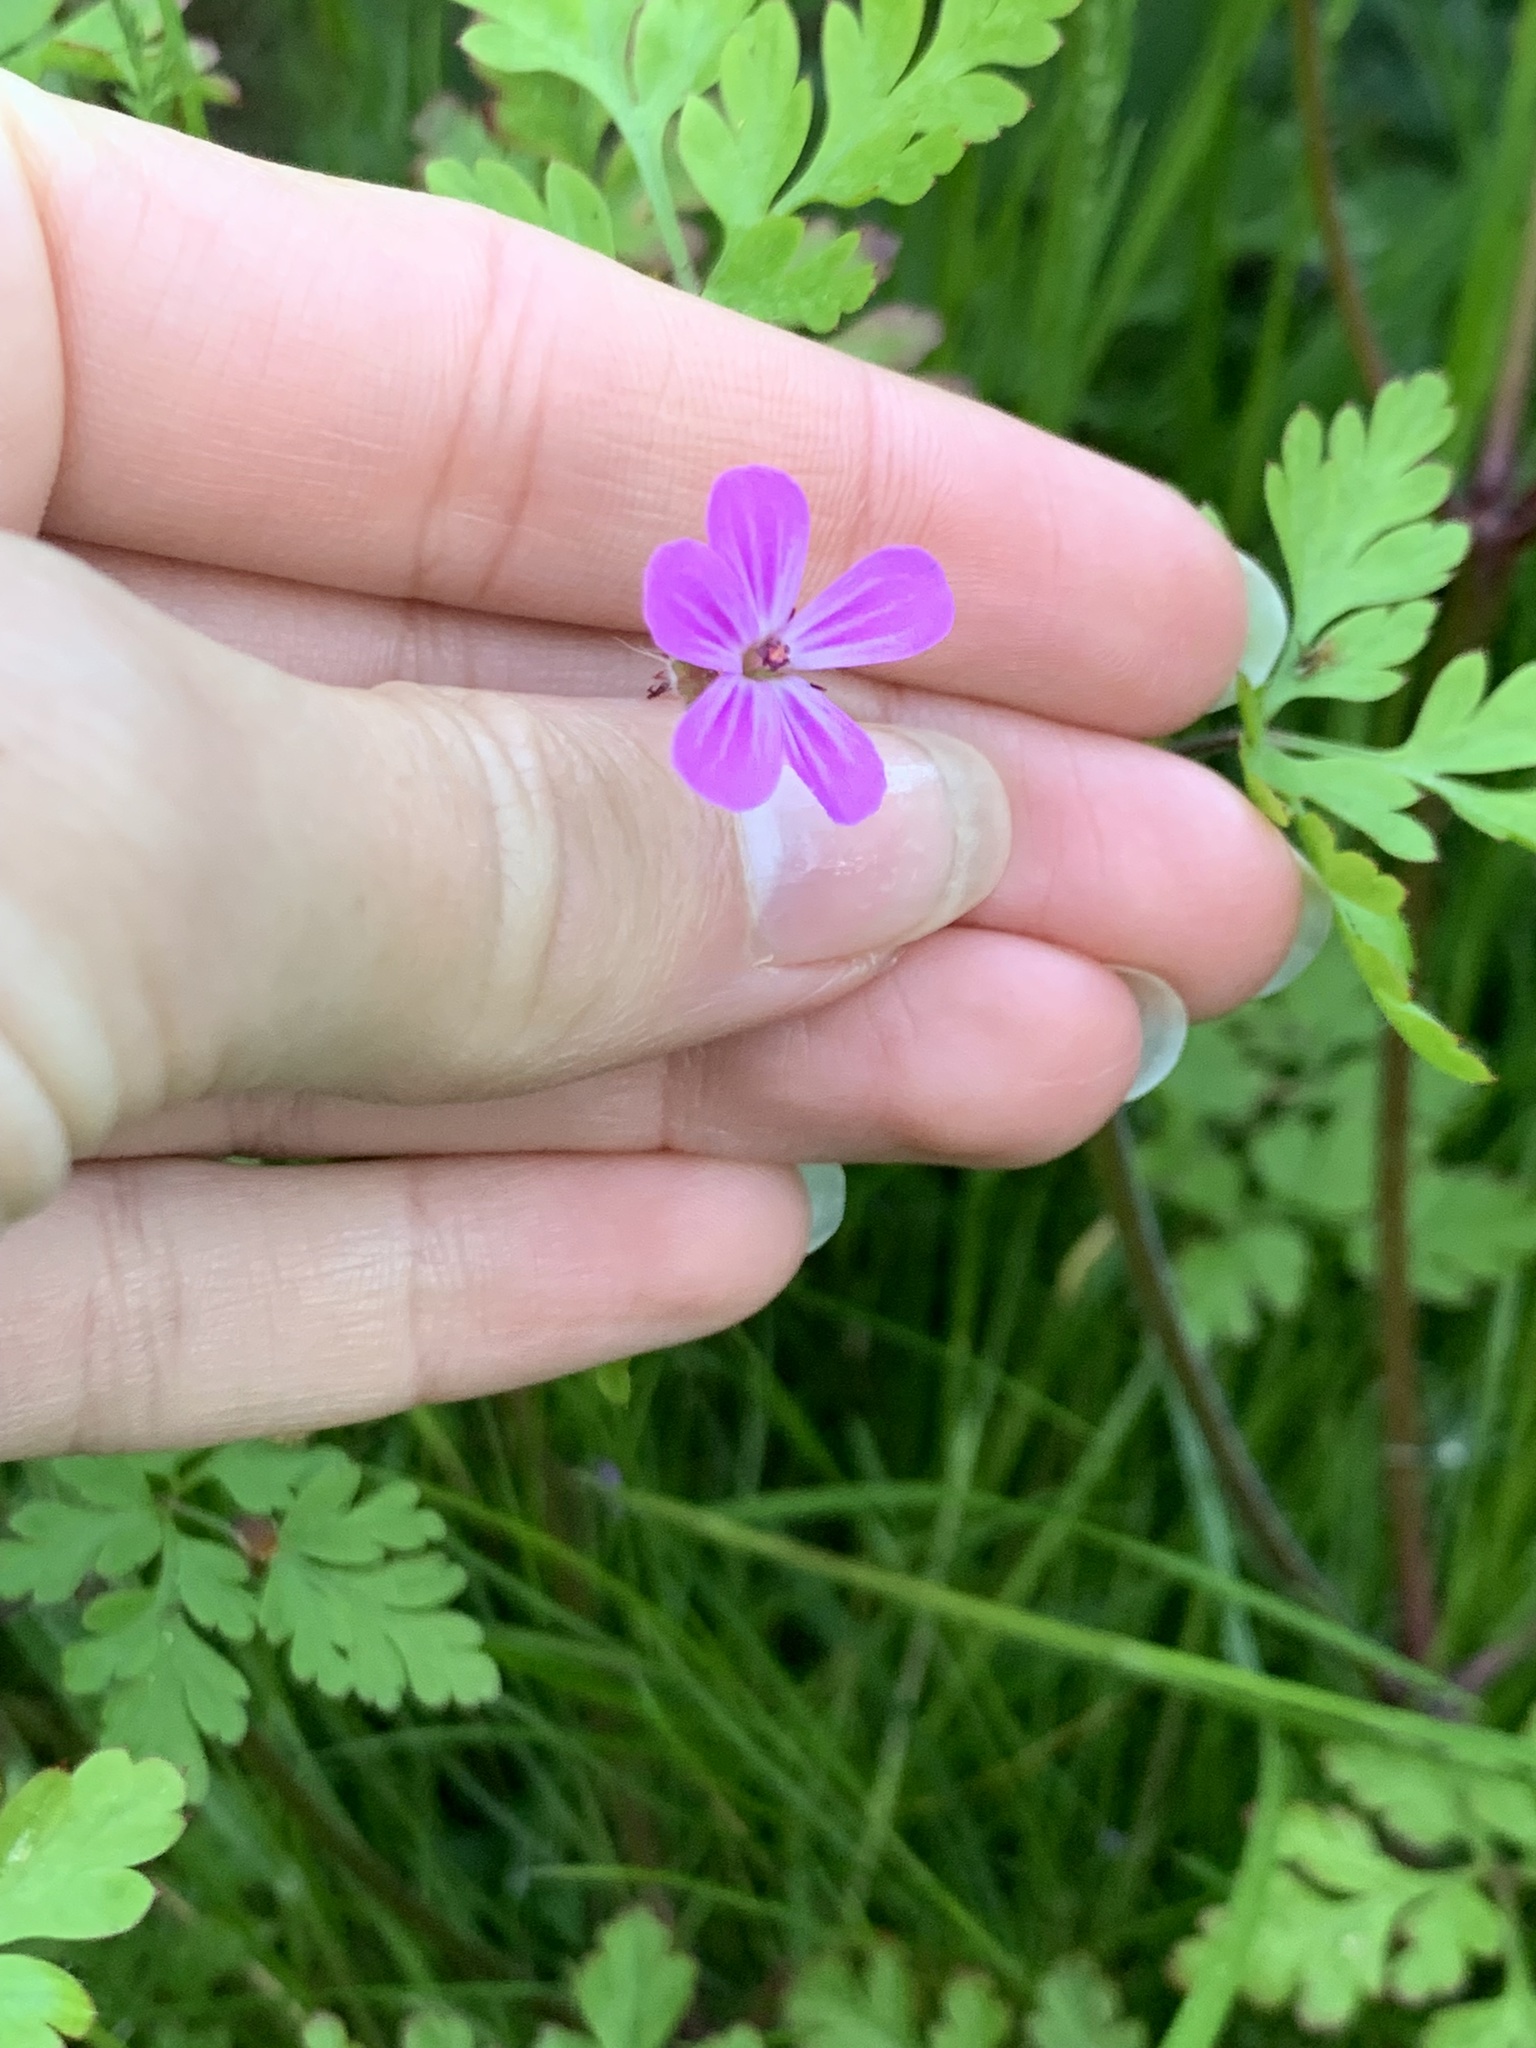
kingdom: Plantae
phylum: Tracheophyta
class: Magnoliopsida
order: Geraniales
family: Geraniaceae
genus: Geranium
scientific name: Geranium robertianum
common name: Herb-robert
